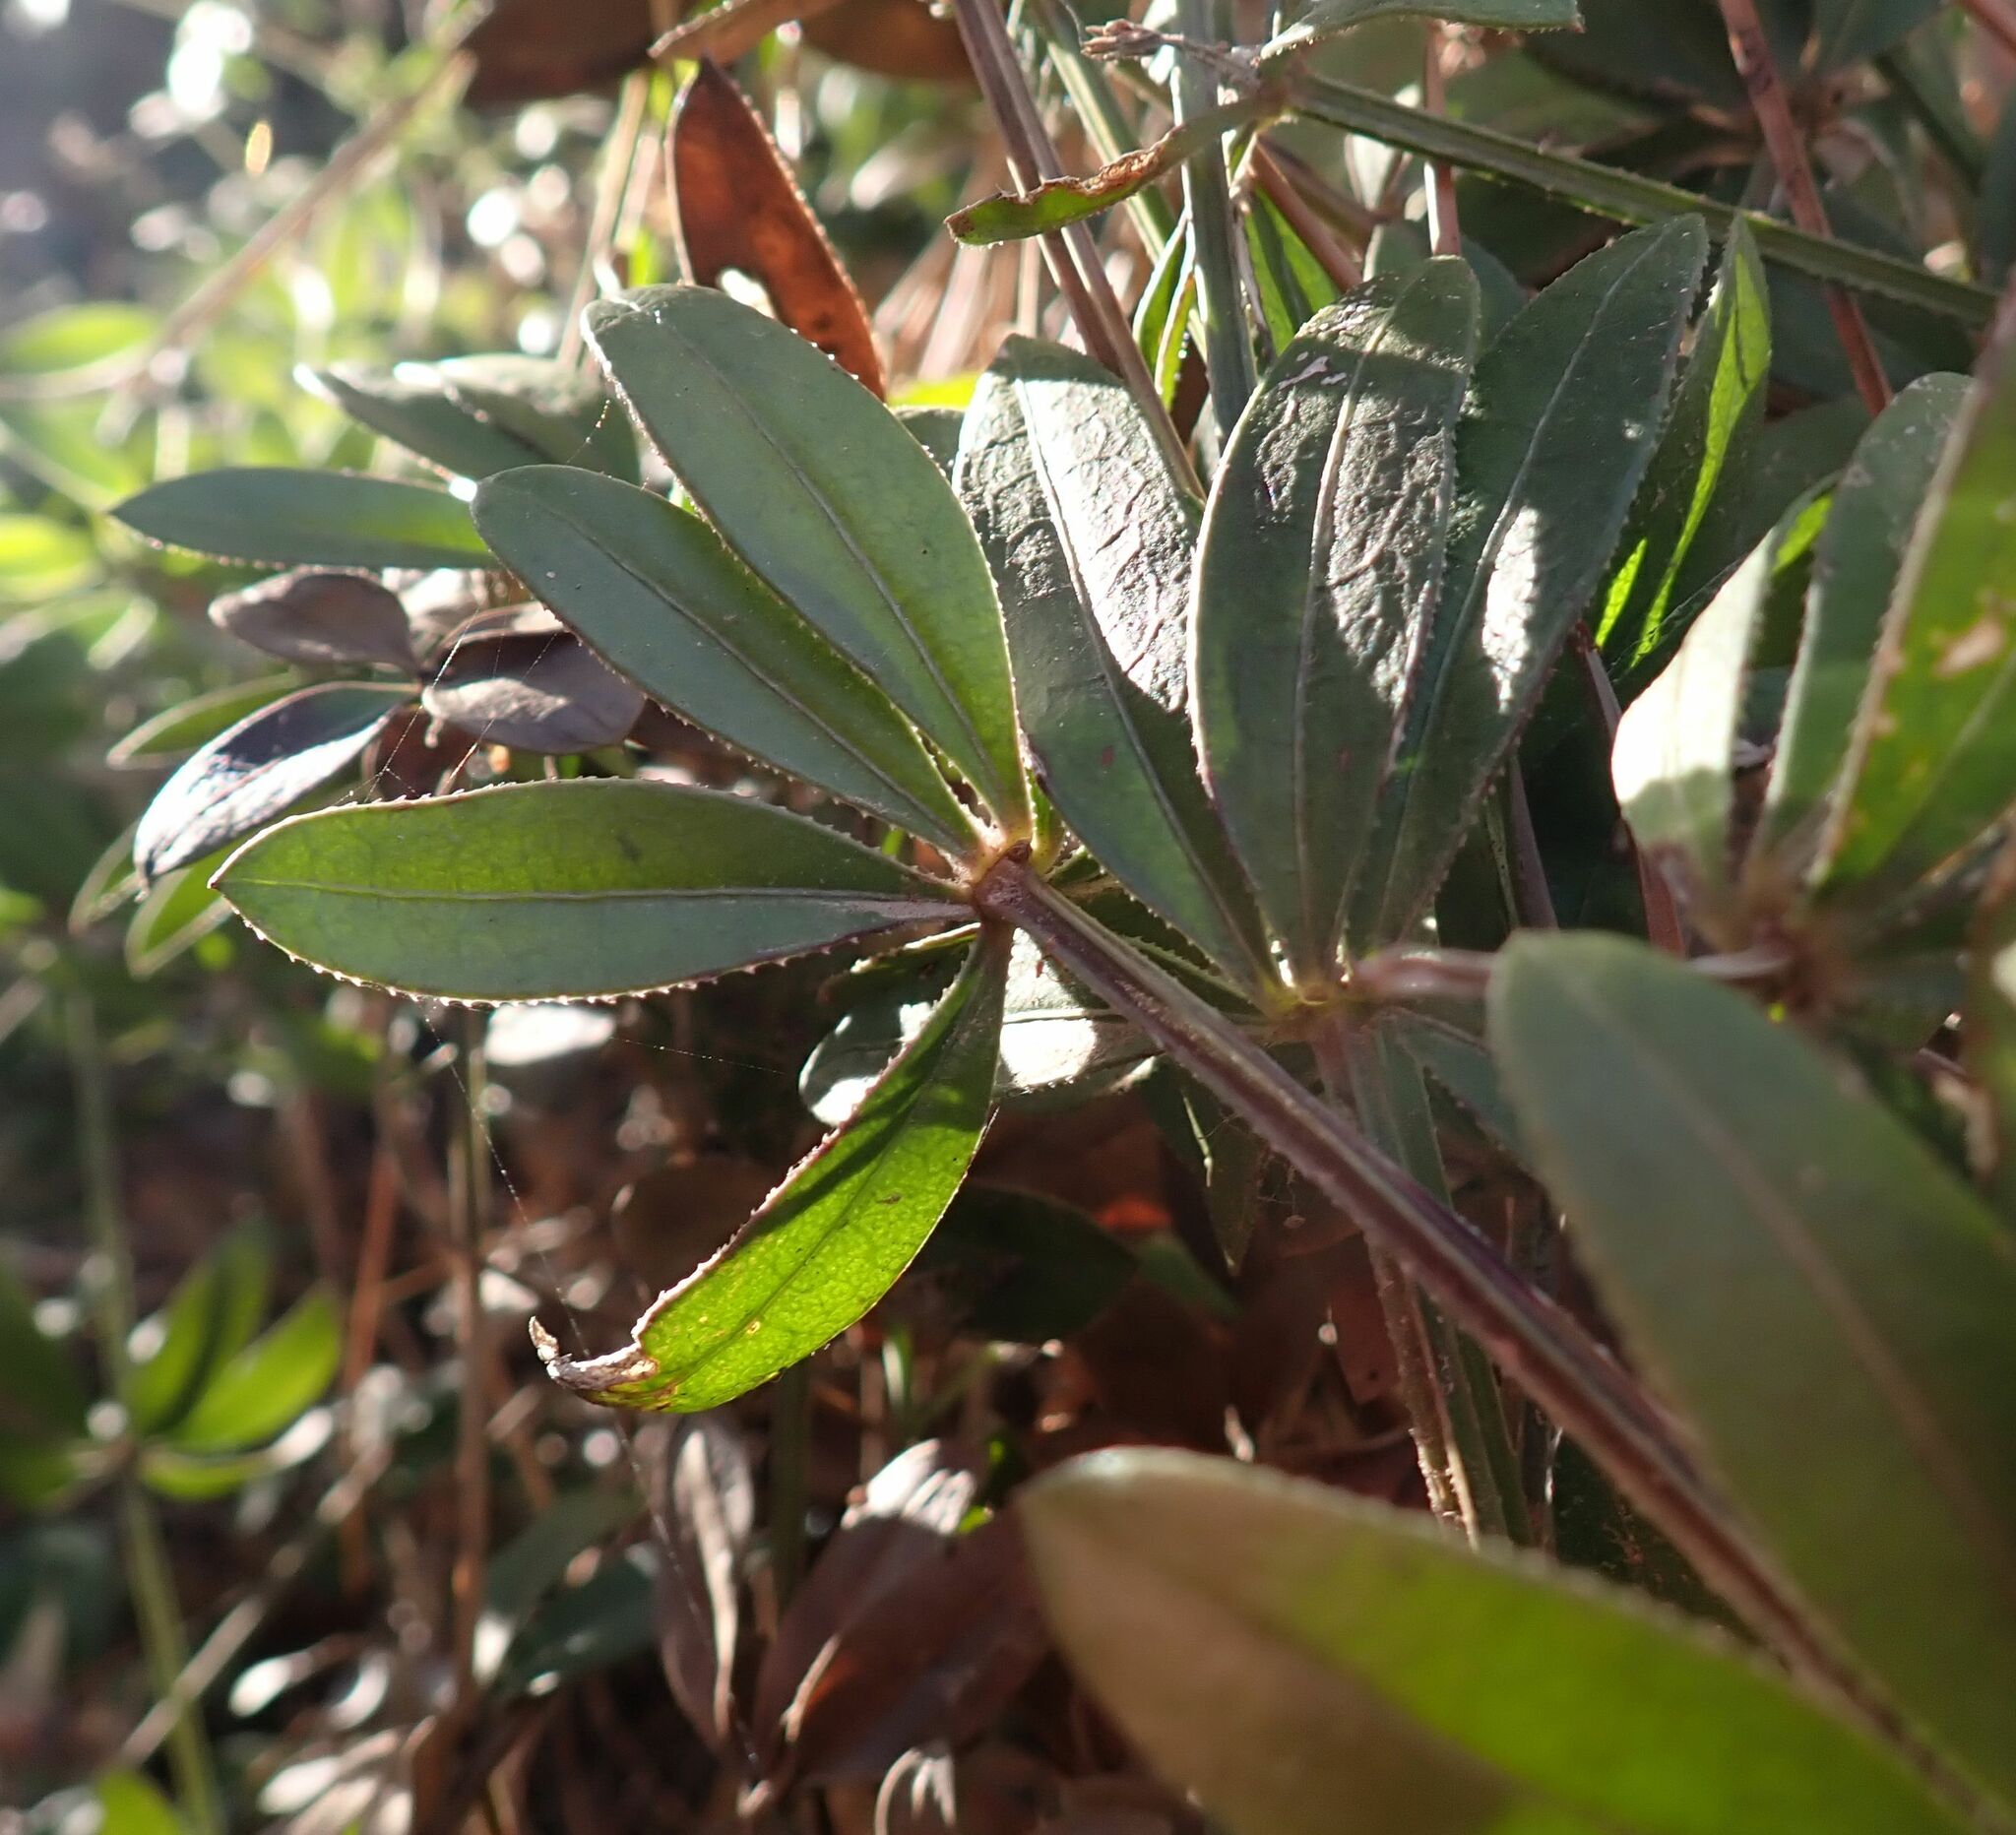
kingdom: Plantae
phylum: Tracheophyta
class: Magnoliopsida
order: Gentianales
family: Rubiaceae
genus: Rubia
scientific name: Rubia peregrina
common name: Wild madder
